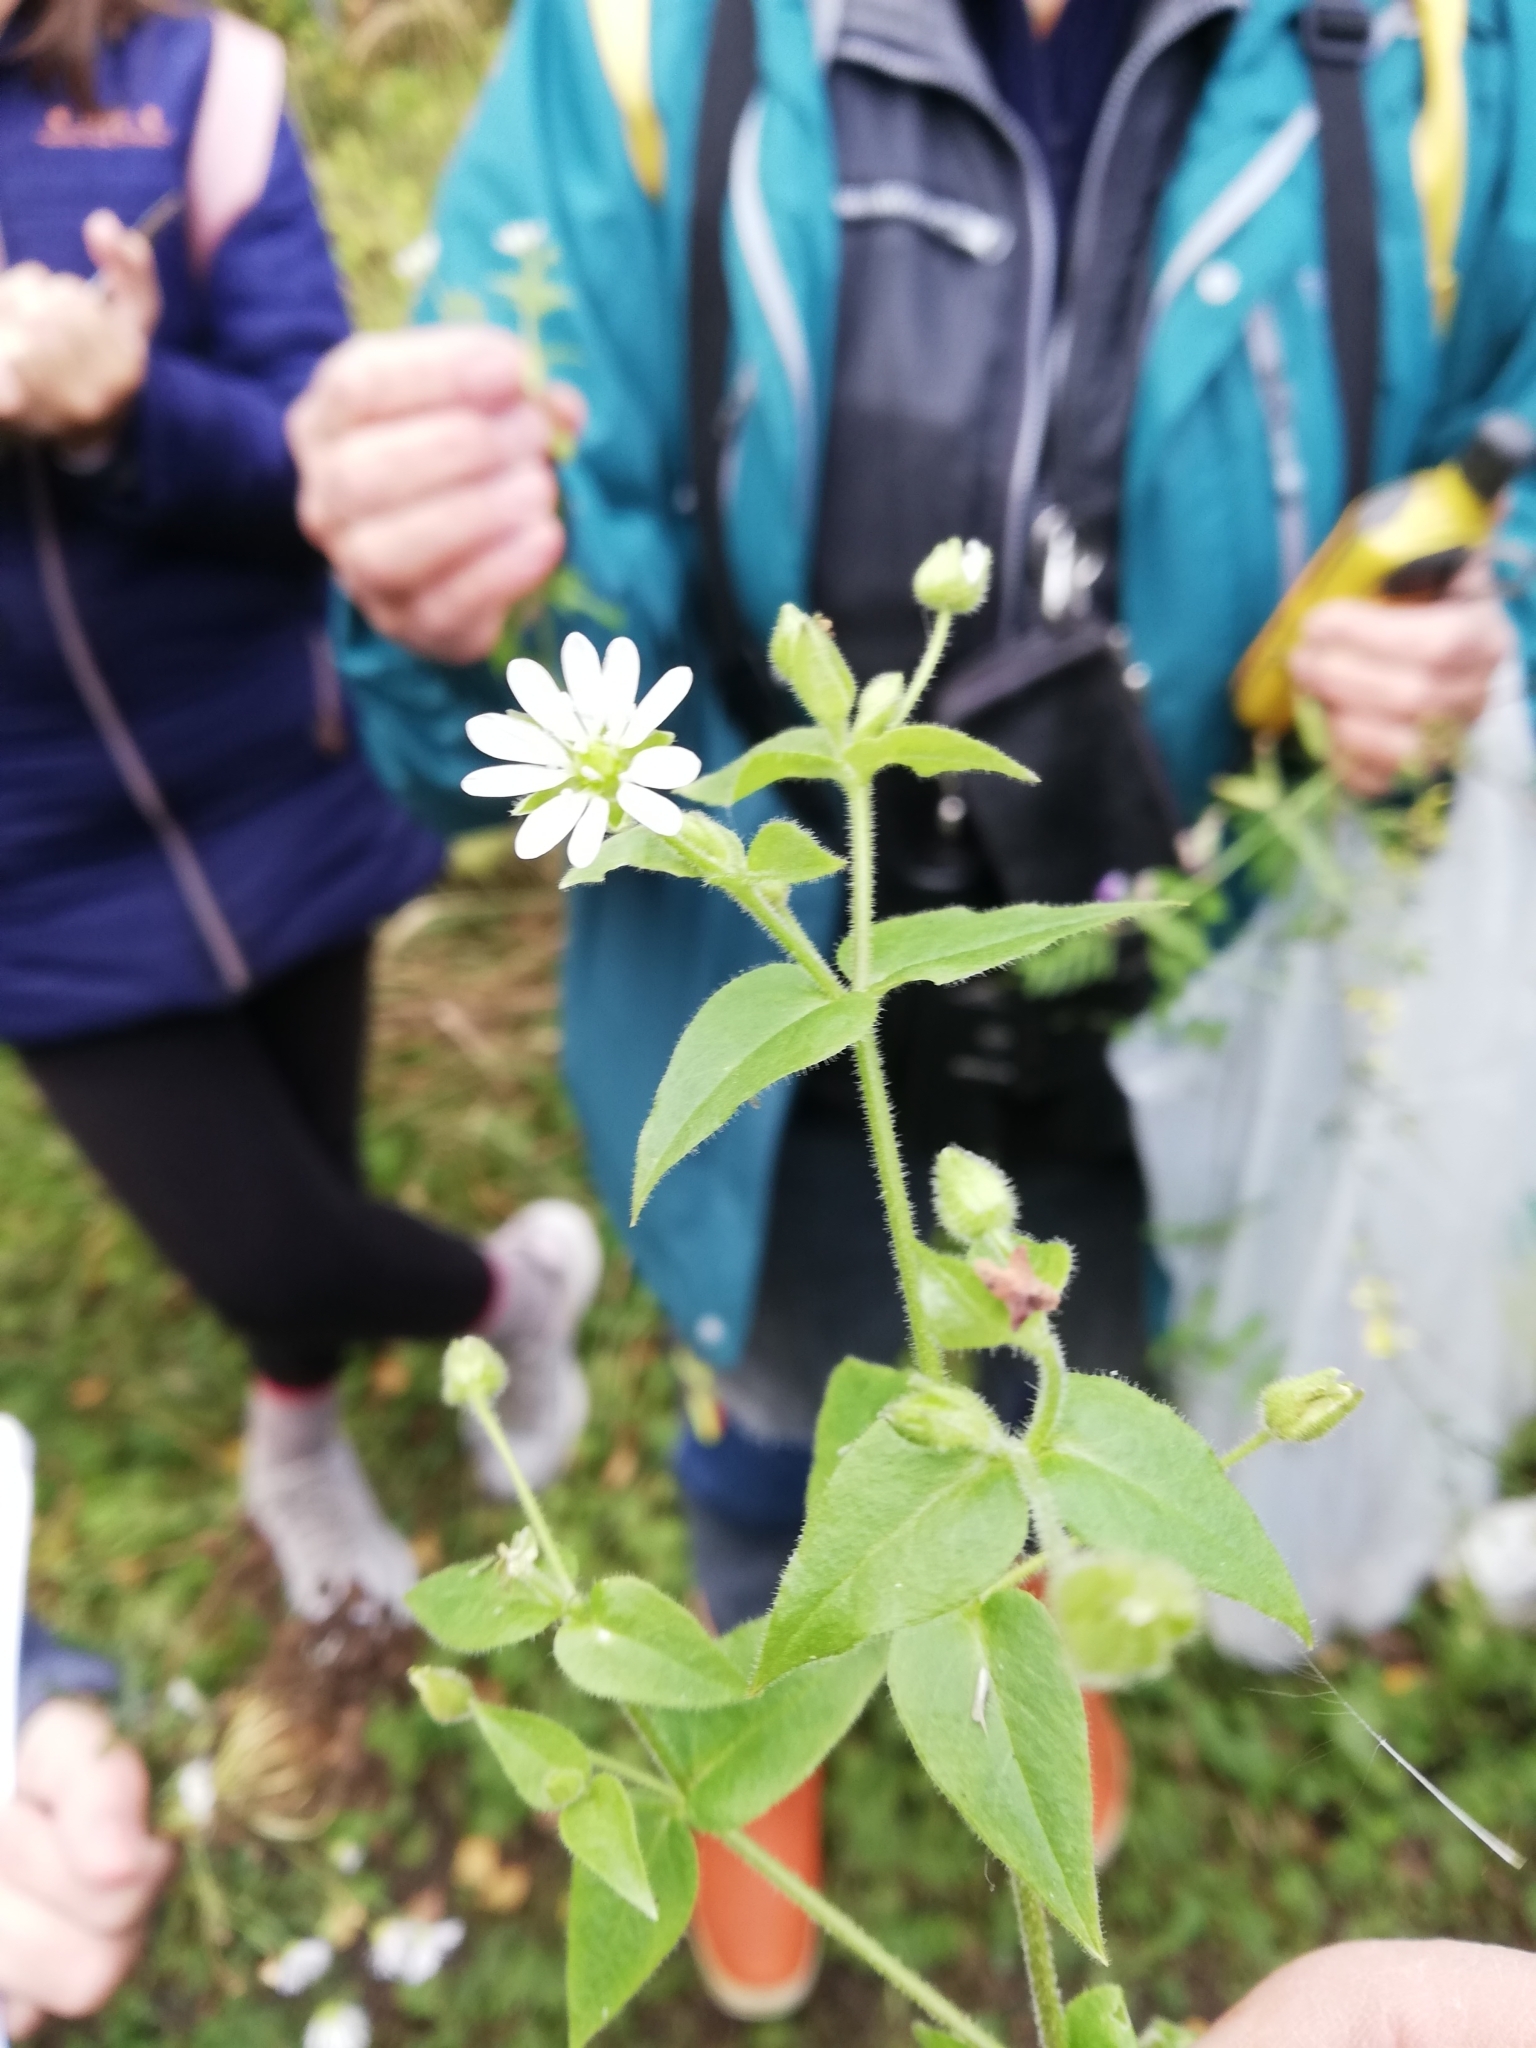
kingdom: Plantae
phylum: Tracheophyta
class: Magnoliopsida
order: Caryophyllales
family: Caryophyllaceae
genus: Stellaria
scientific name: Stellaria aquatica
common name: Water chickweed
